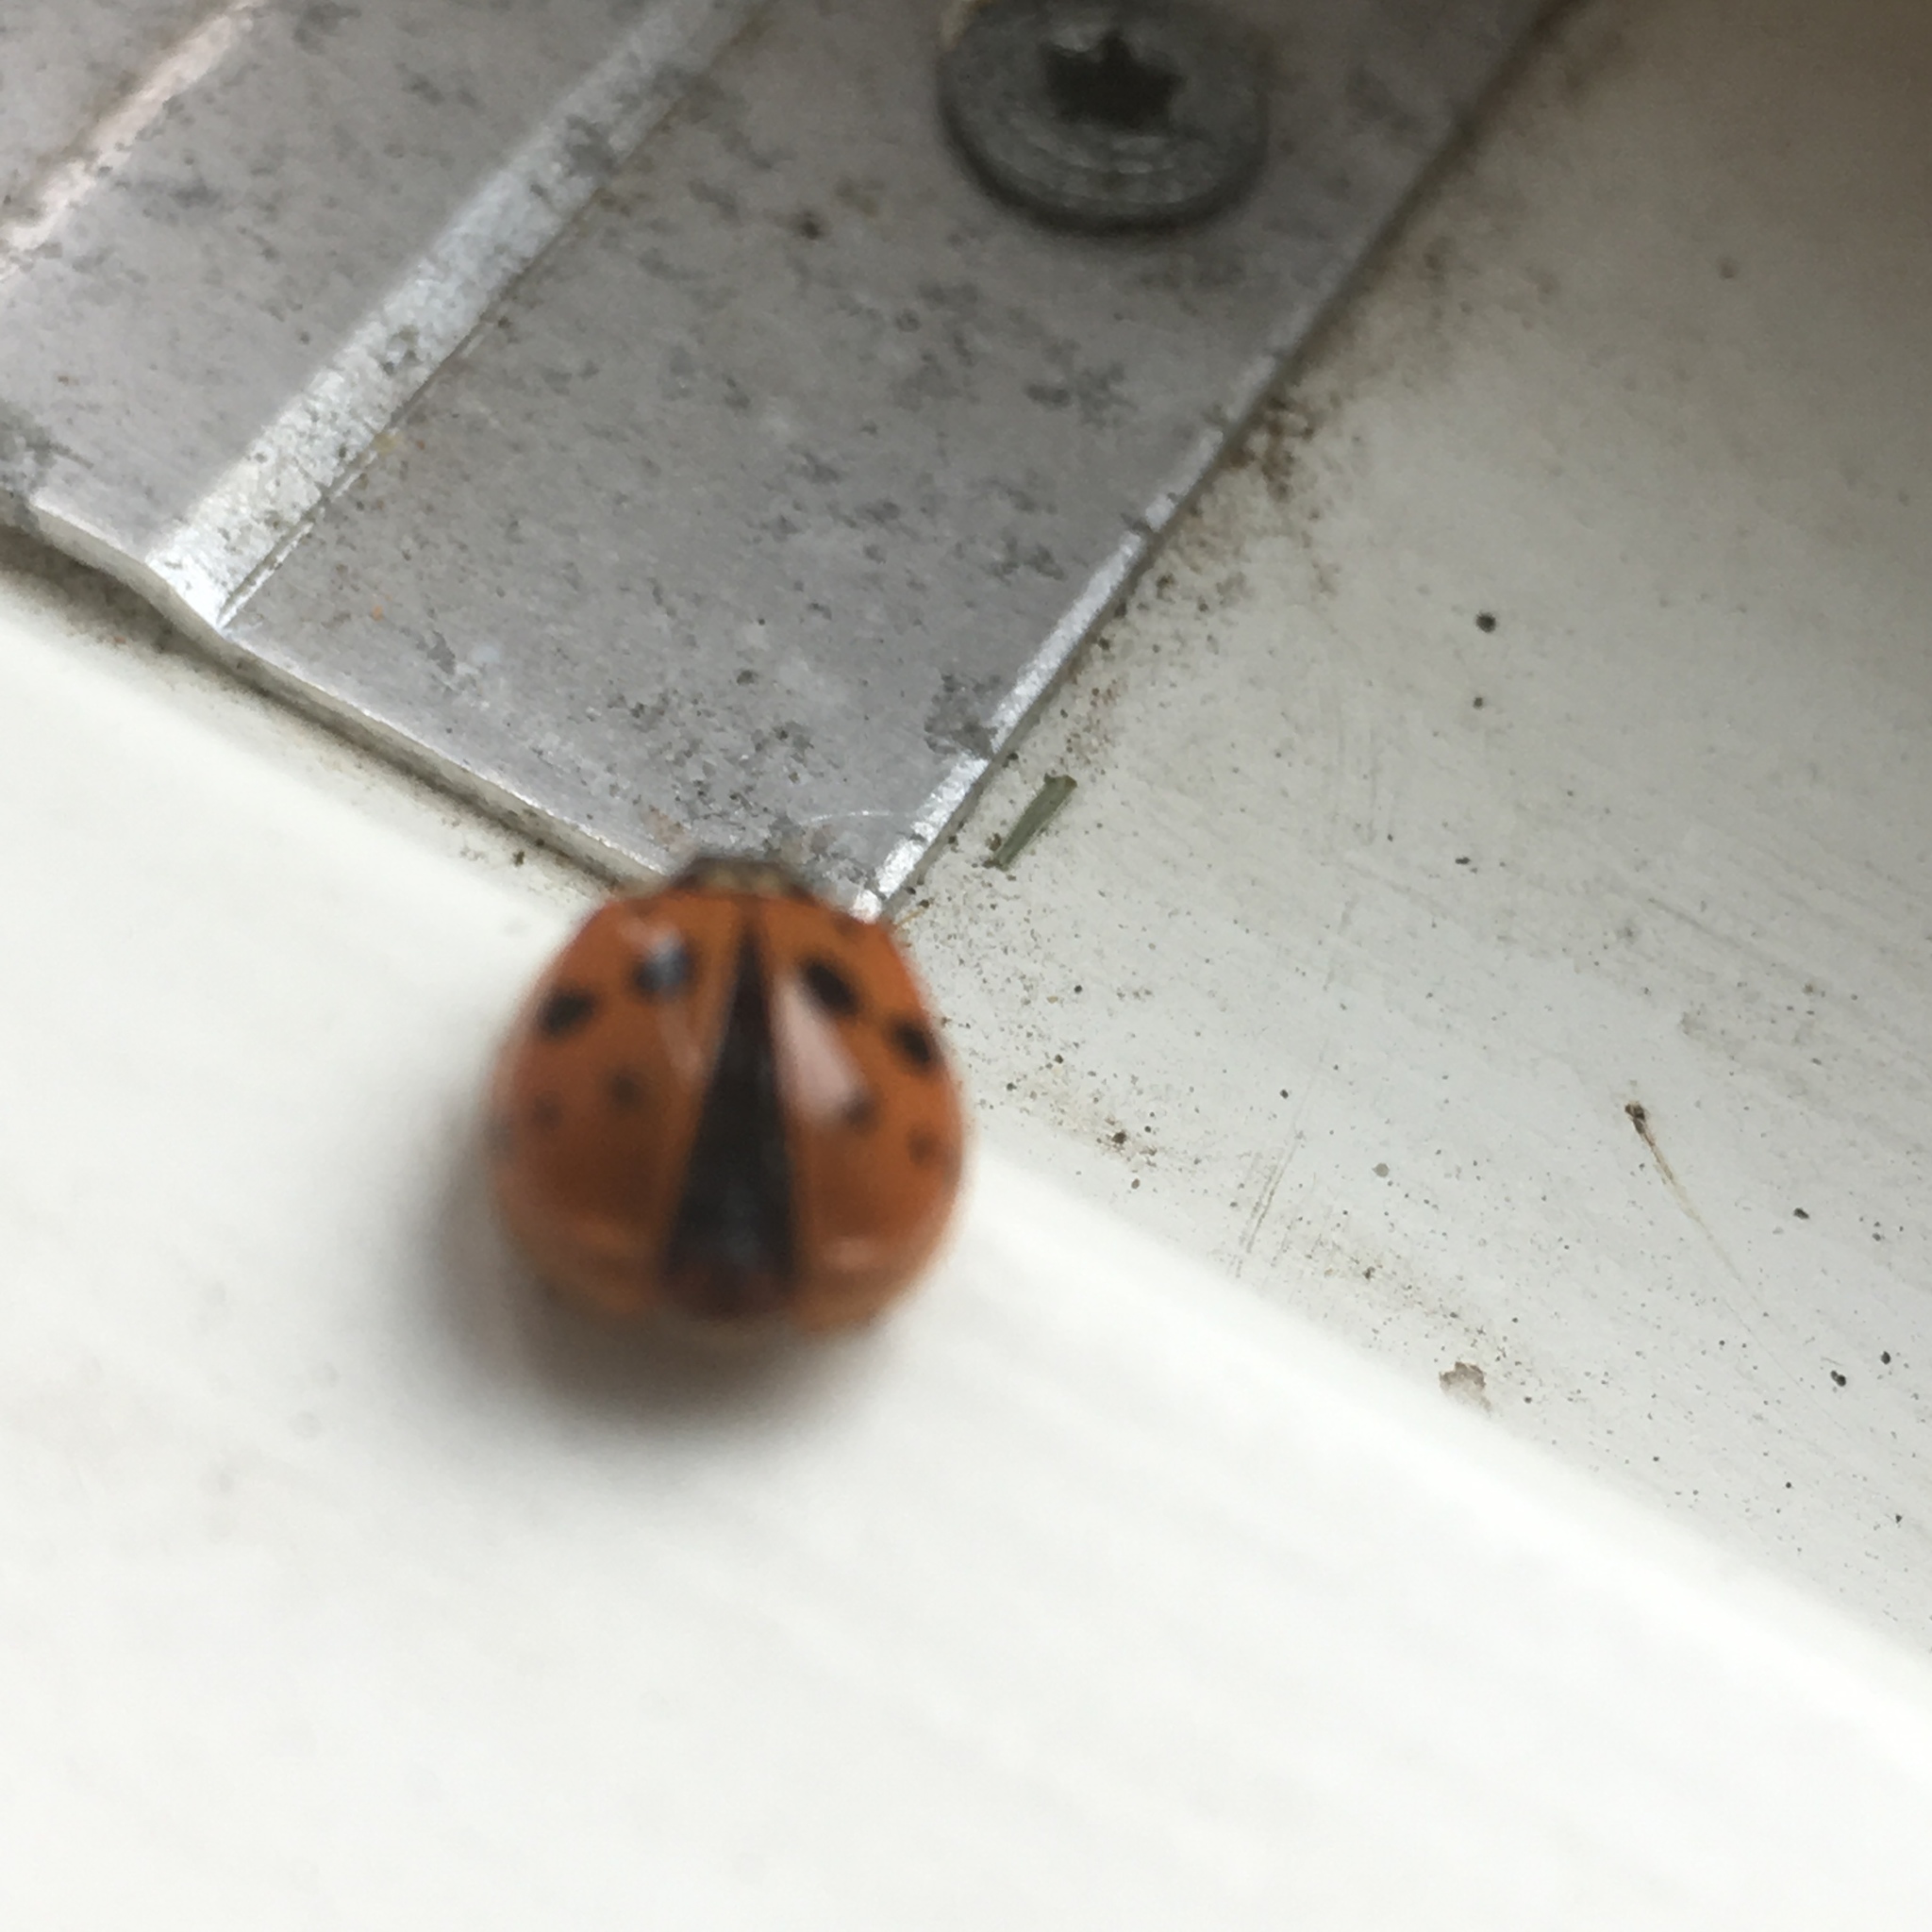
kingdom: Animalia
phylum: Arthropoda
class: Insecta
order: Coleoptera
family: Coccinellidae
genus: Harmonia
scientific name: Harmonia axyridis
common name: Harlequin ladybird
